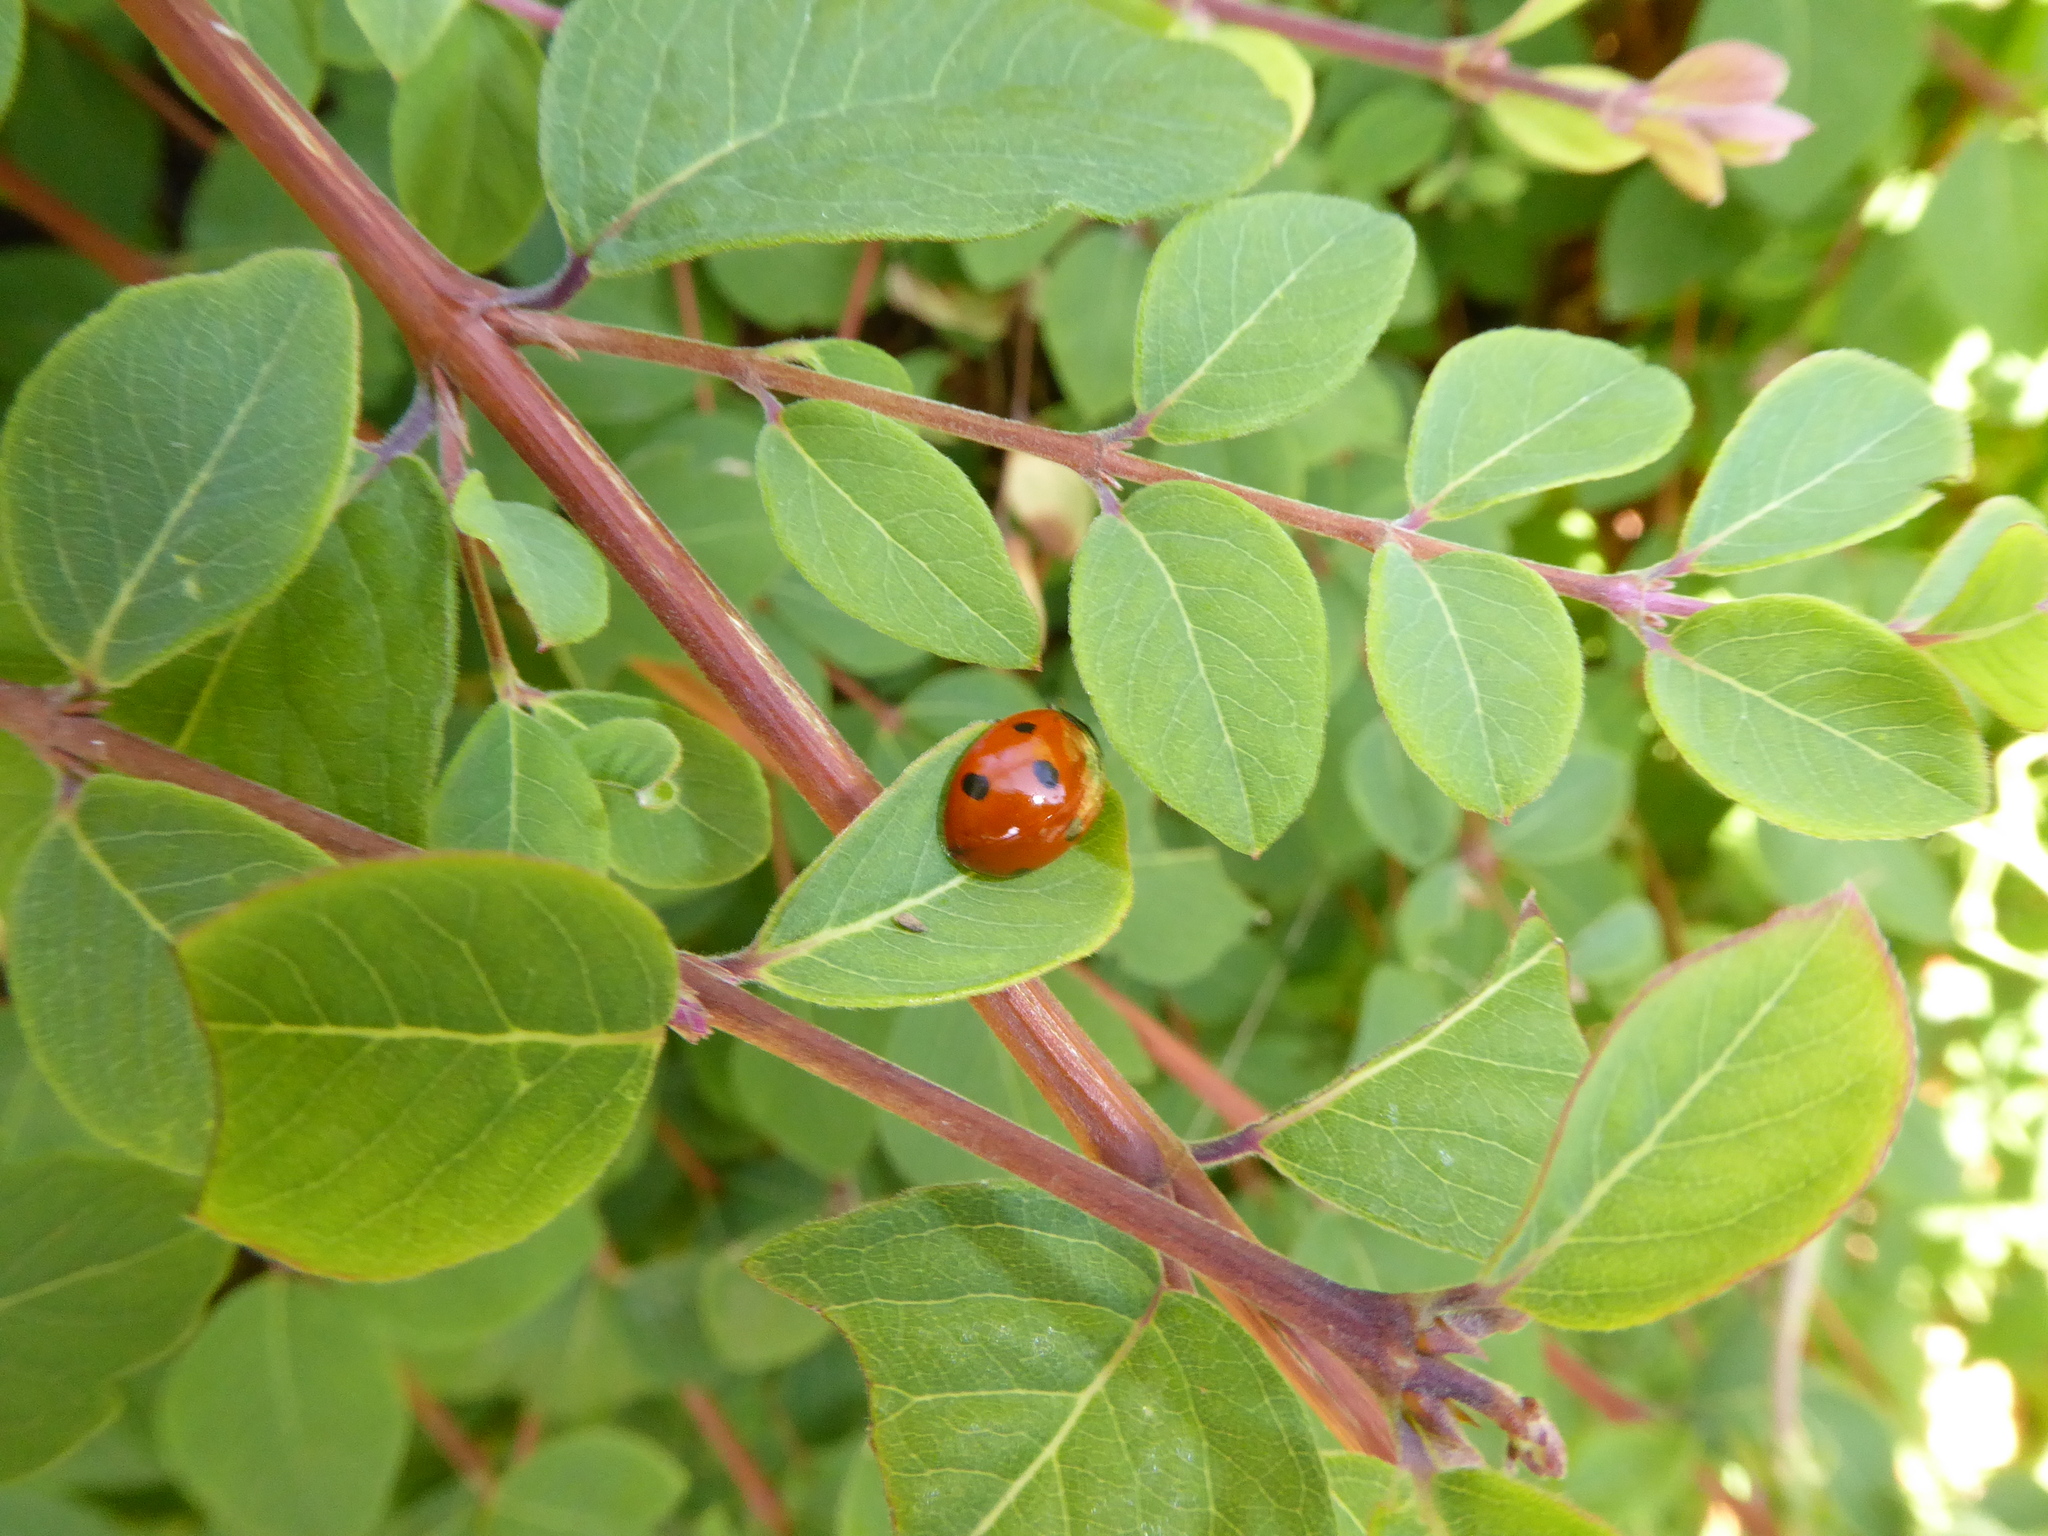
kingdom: Animalia
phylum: Arthropoda
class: Insecta
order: Coleoptera
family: Coccinellidae
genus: Coccinella
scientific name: Coccinella septempunctata
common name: Sevenspotted lady beetle
